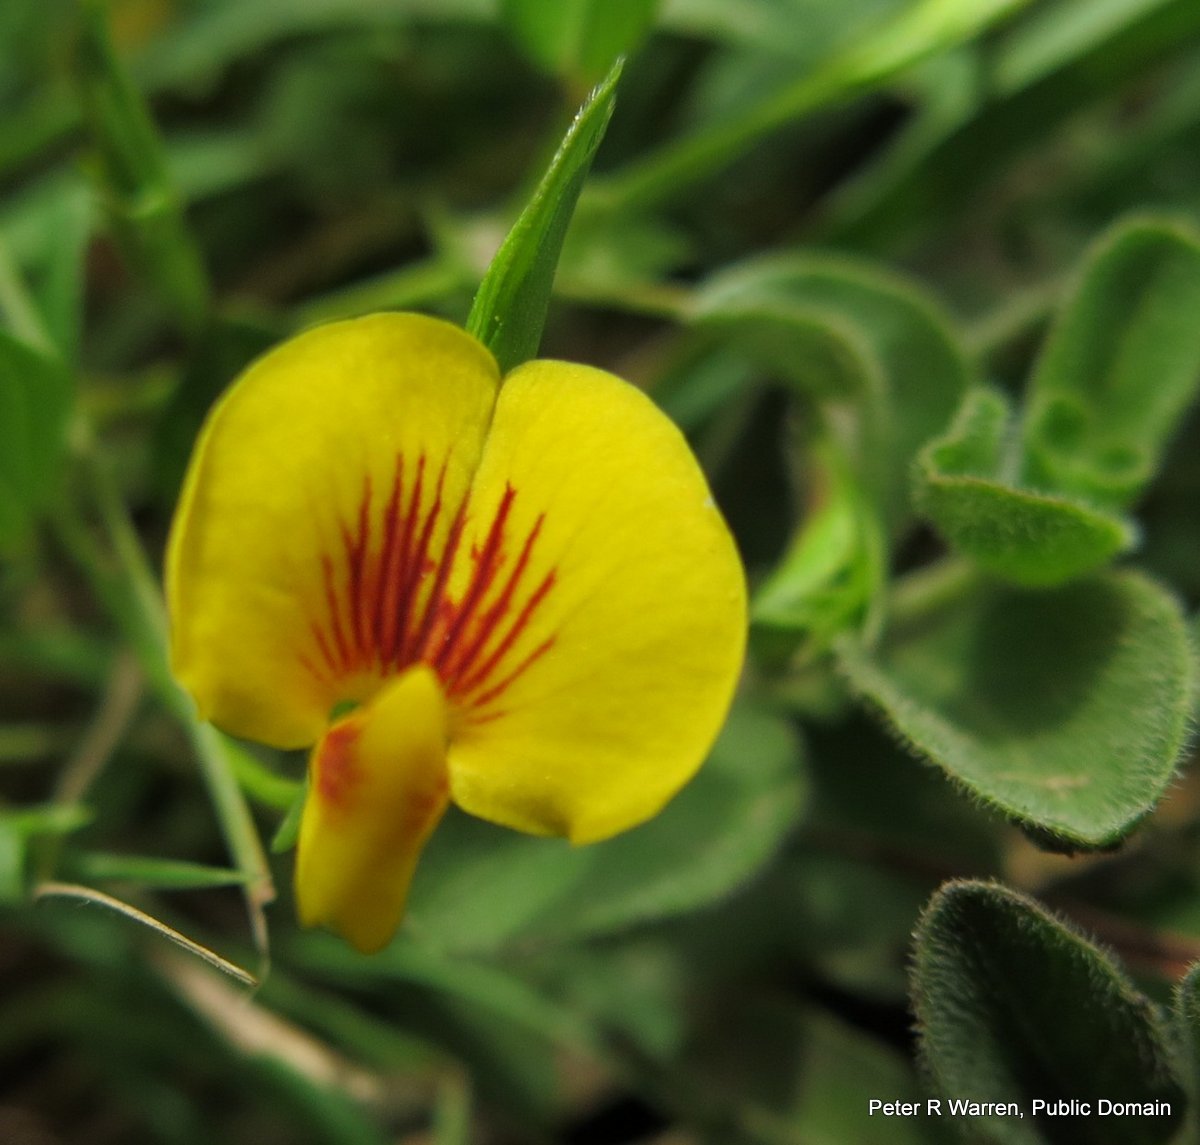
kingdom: Plantae
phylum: Tracheophyta
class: Magnoliopsida
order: Fabales
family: Fabaceae
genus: Zornia
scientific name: Zornia capensis
